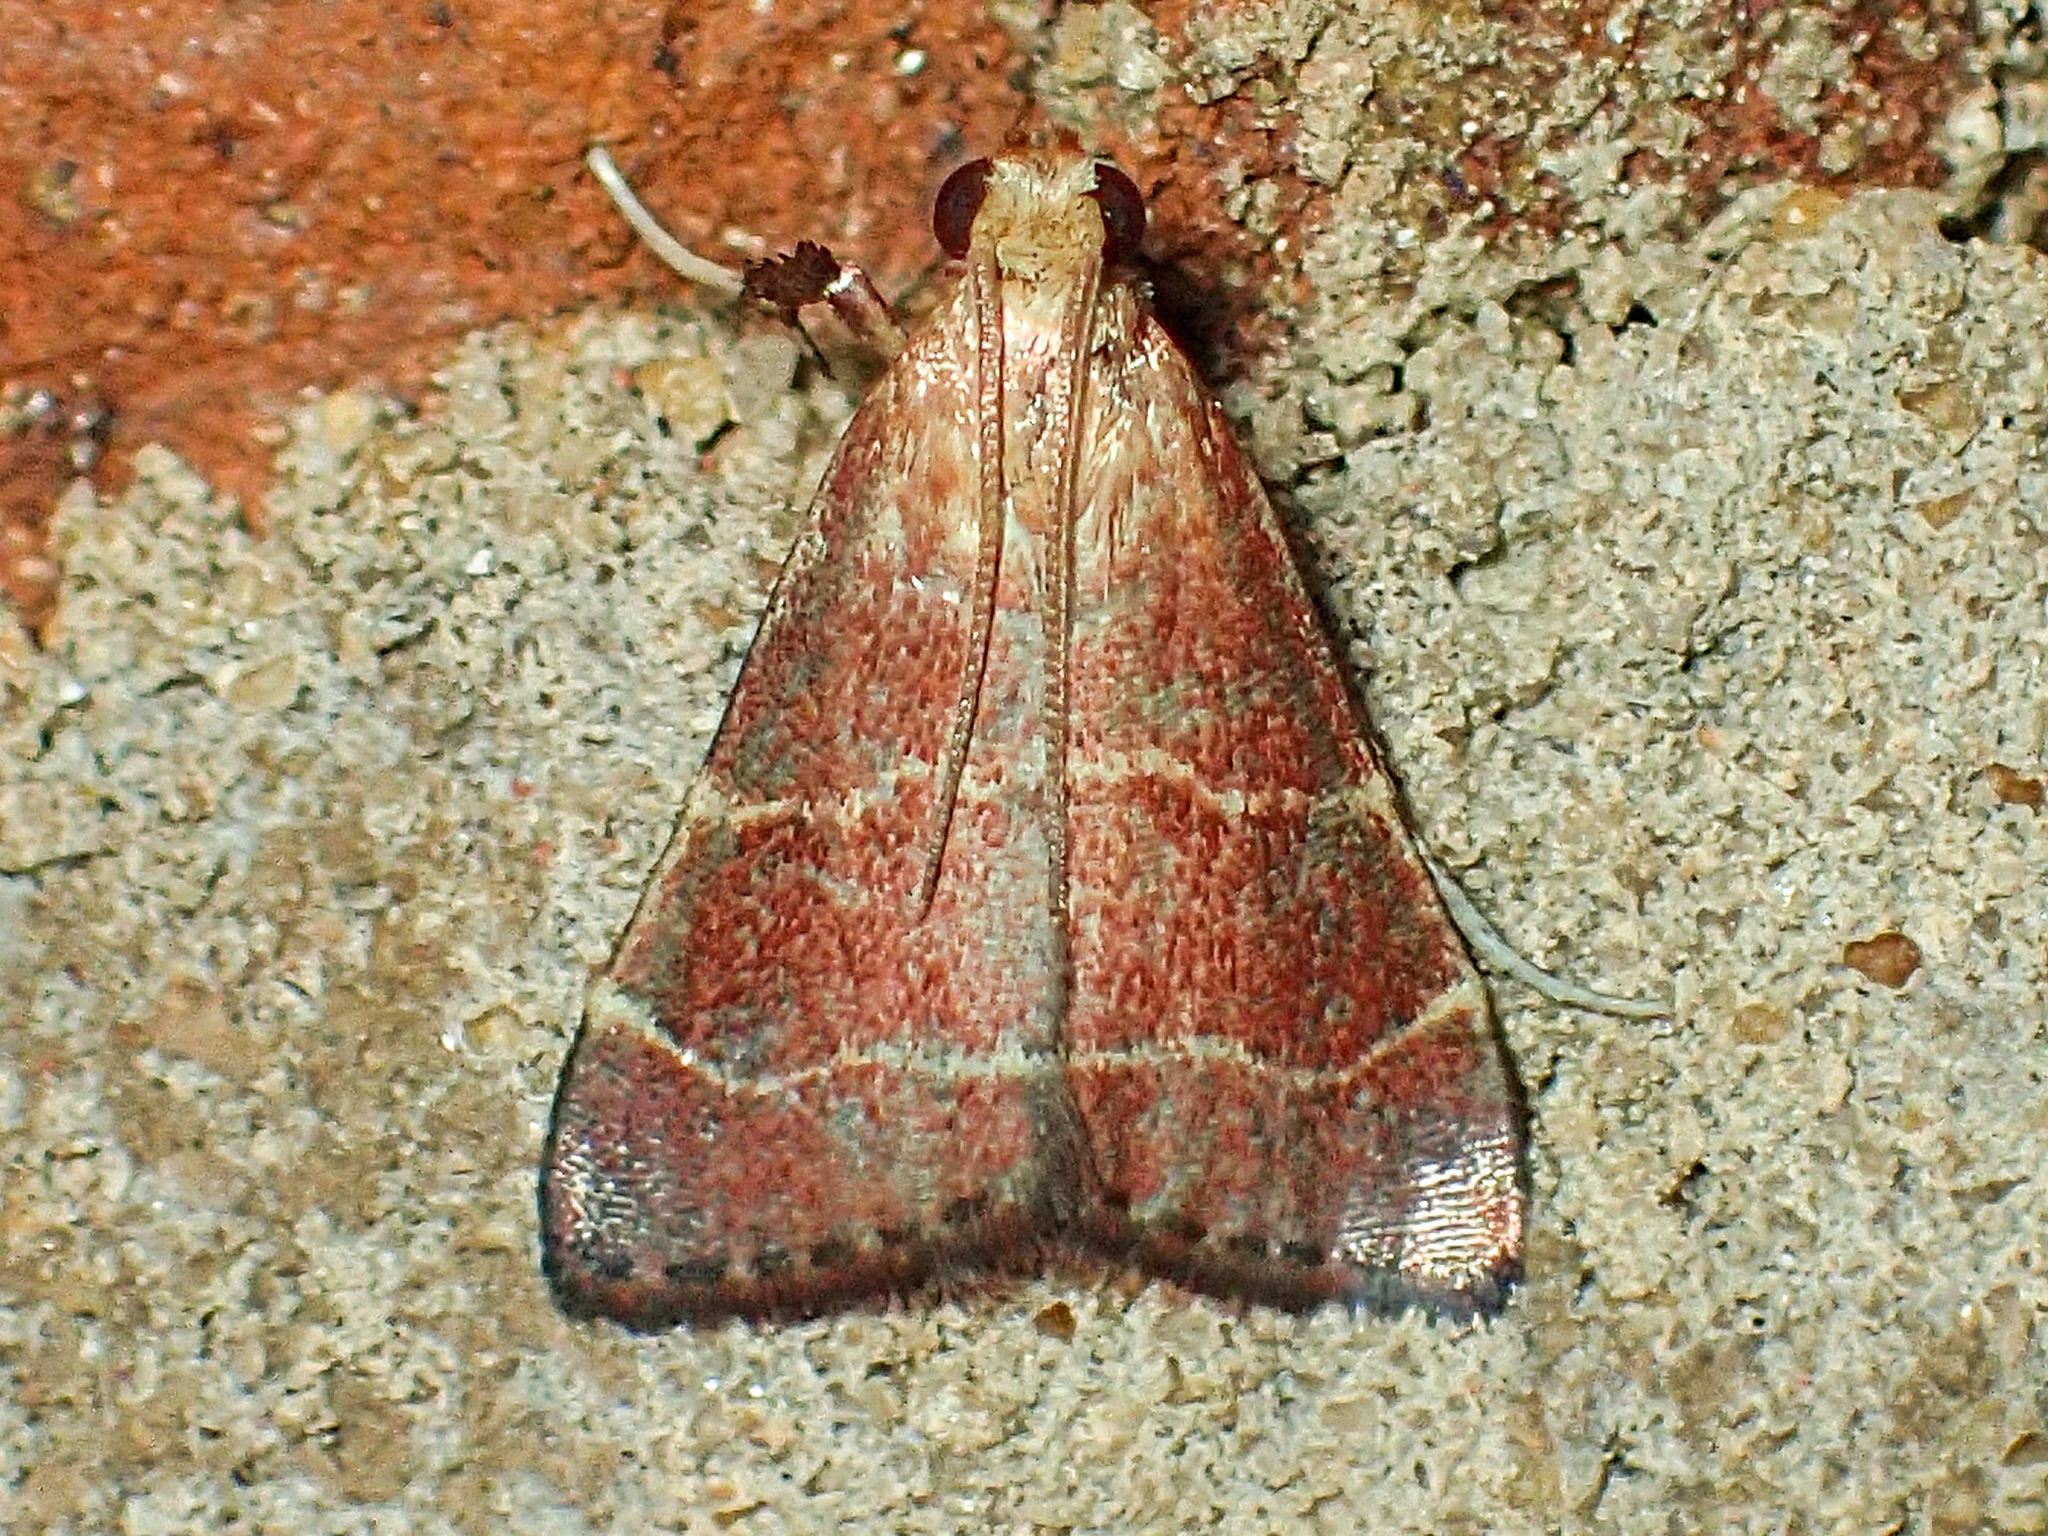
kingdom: Animalia
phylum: Arthropoda
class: Insecta
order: Lepidoptera
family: Pyralidae
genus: Arta
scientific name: Arta statalis
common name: Posturing arta moth
